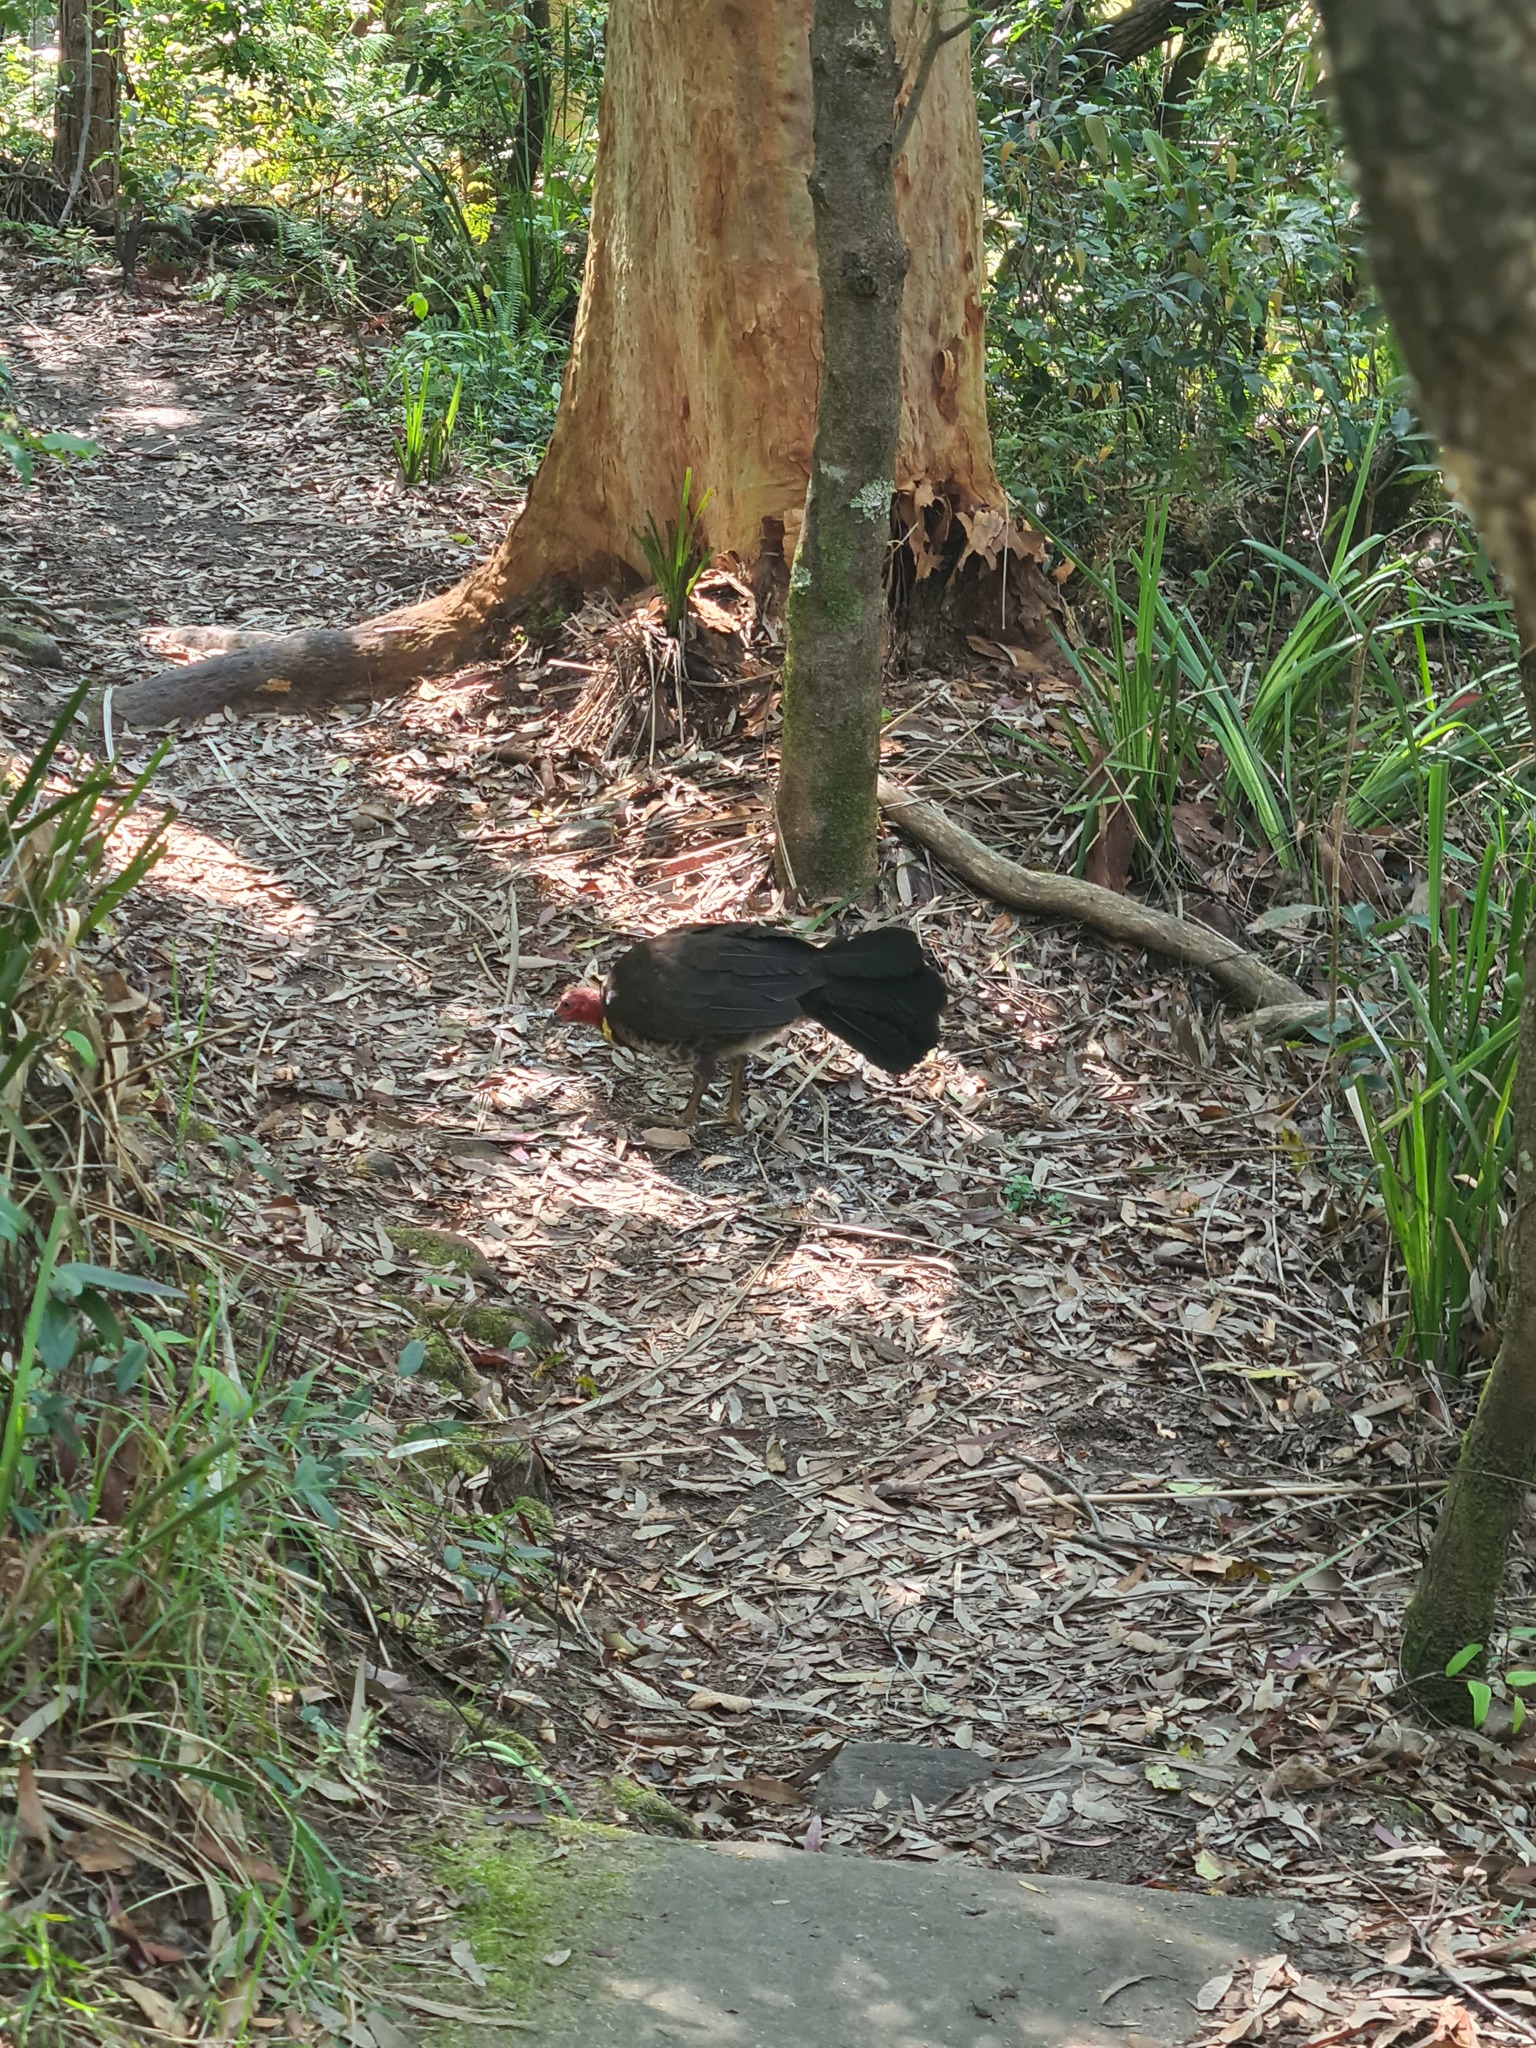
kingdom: Animalia
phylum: Chordata
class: Aves
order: Galliformes
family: Megapodiidae
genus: Alectura
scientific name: Alectura lathami
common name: Australian brushturkey
